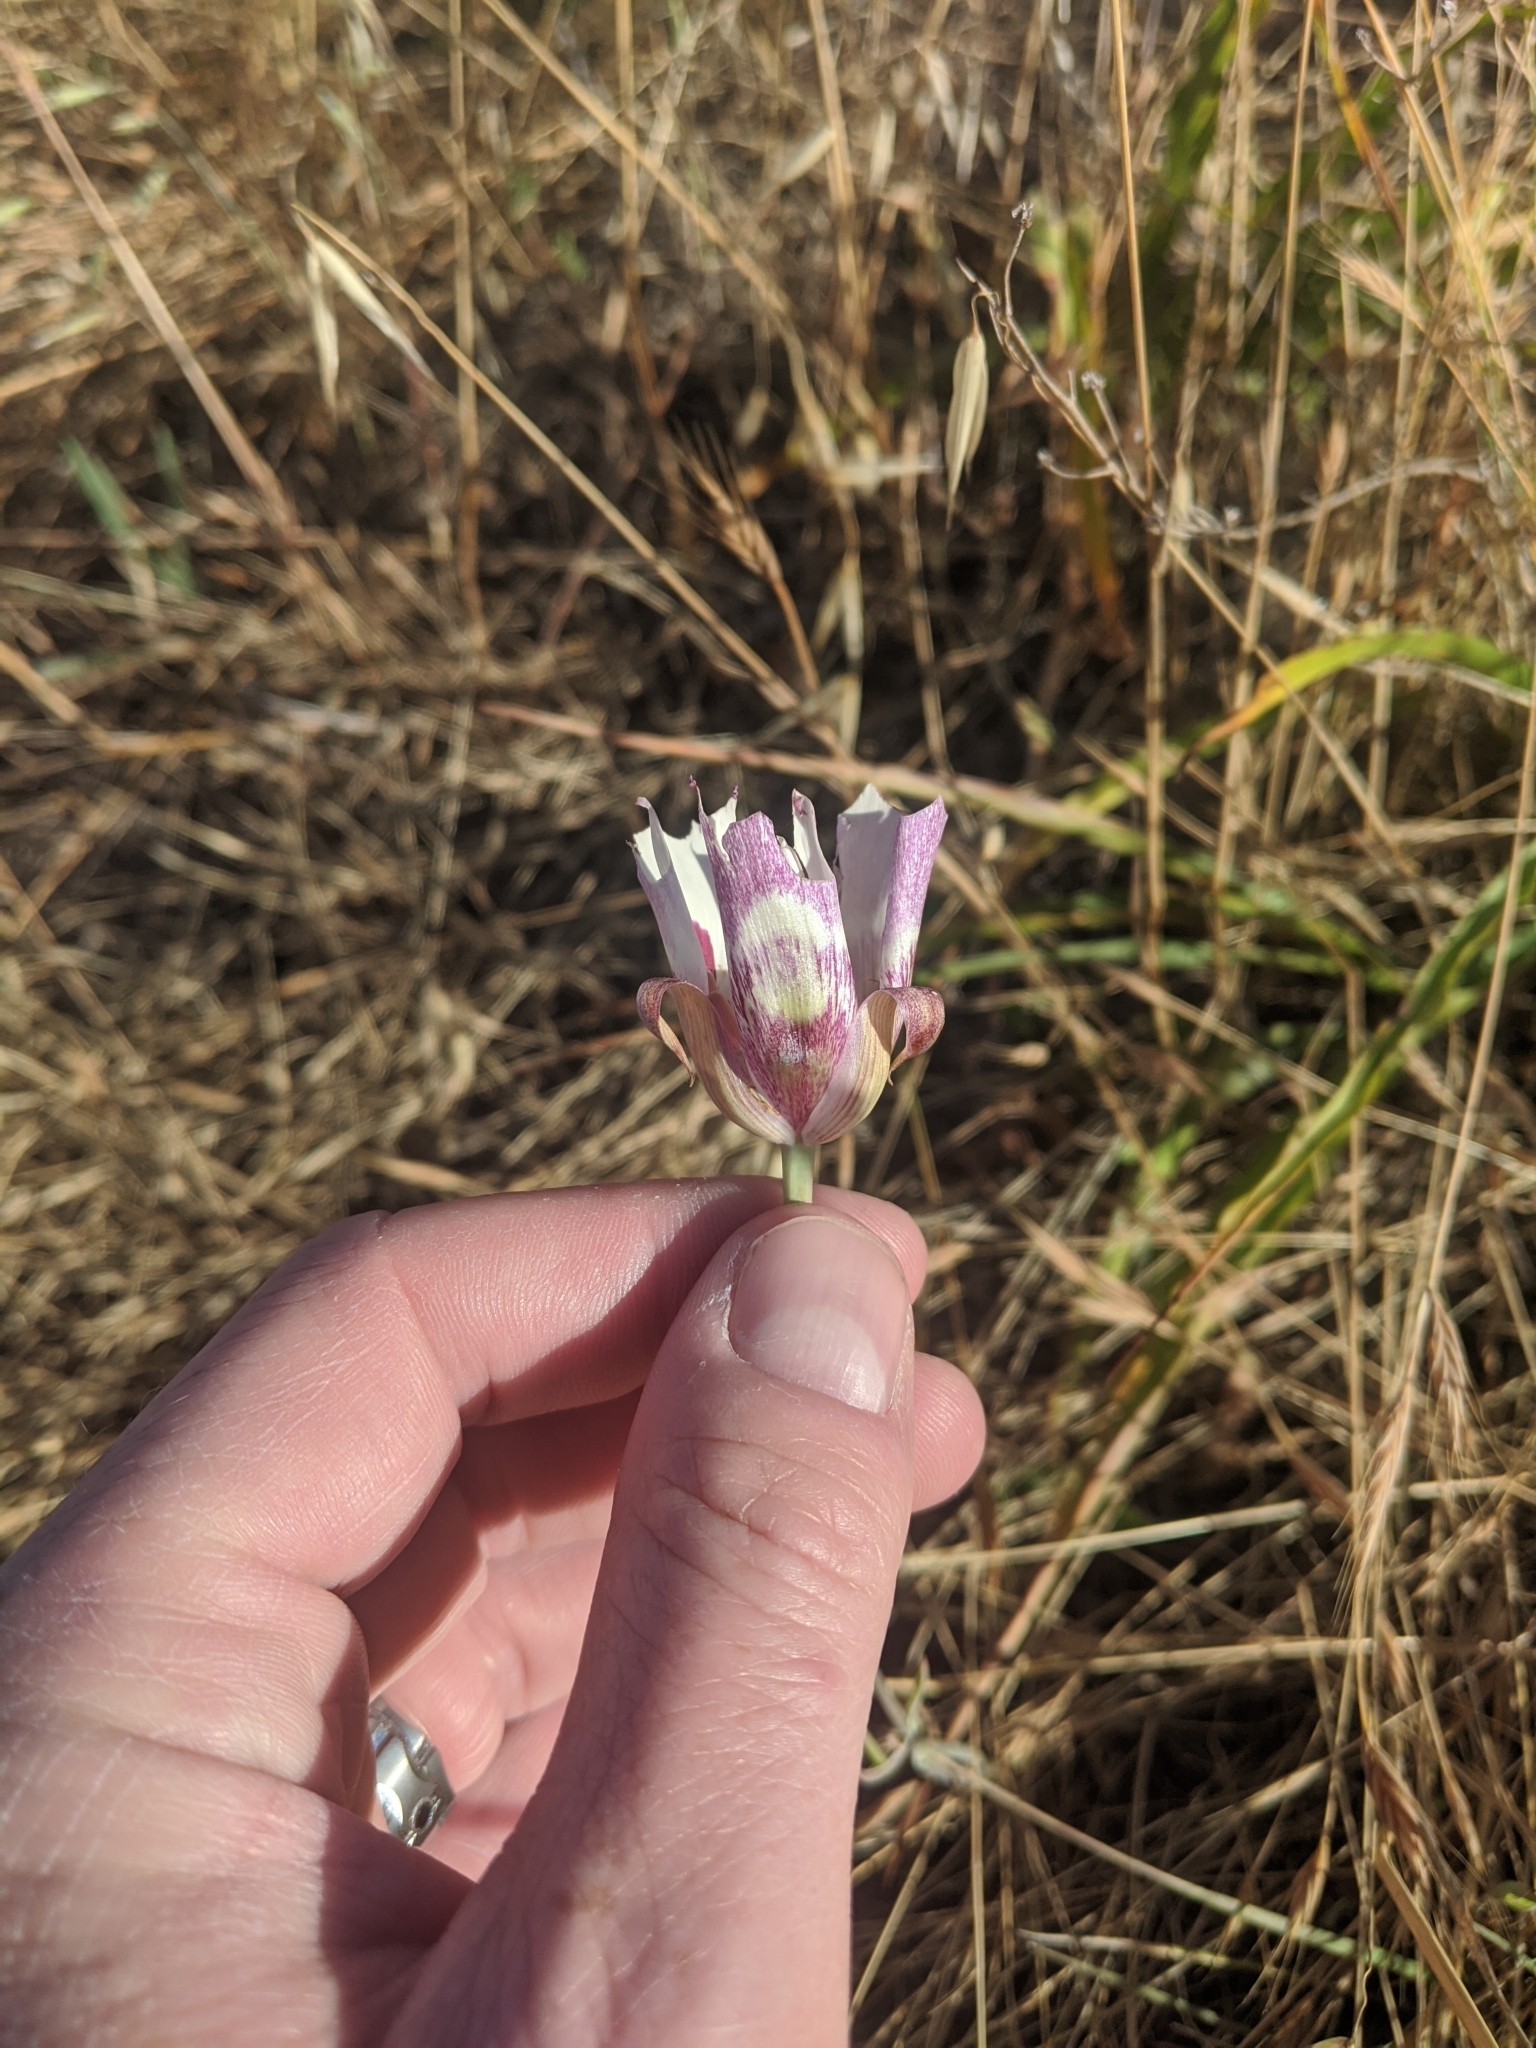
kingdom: Plantae
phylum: Tracheophyta
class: Liliopsida
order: Liliales
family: Liliaceae
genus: Calochortus
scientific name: Calochortus argillosus
